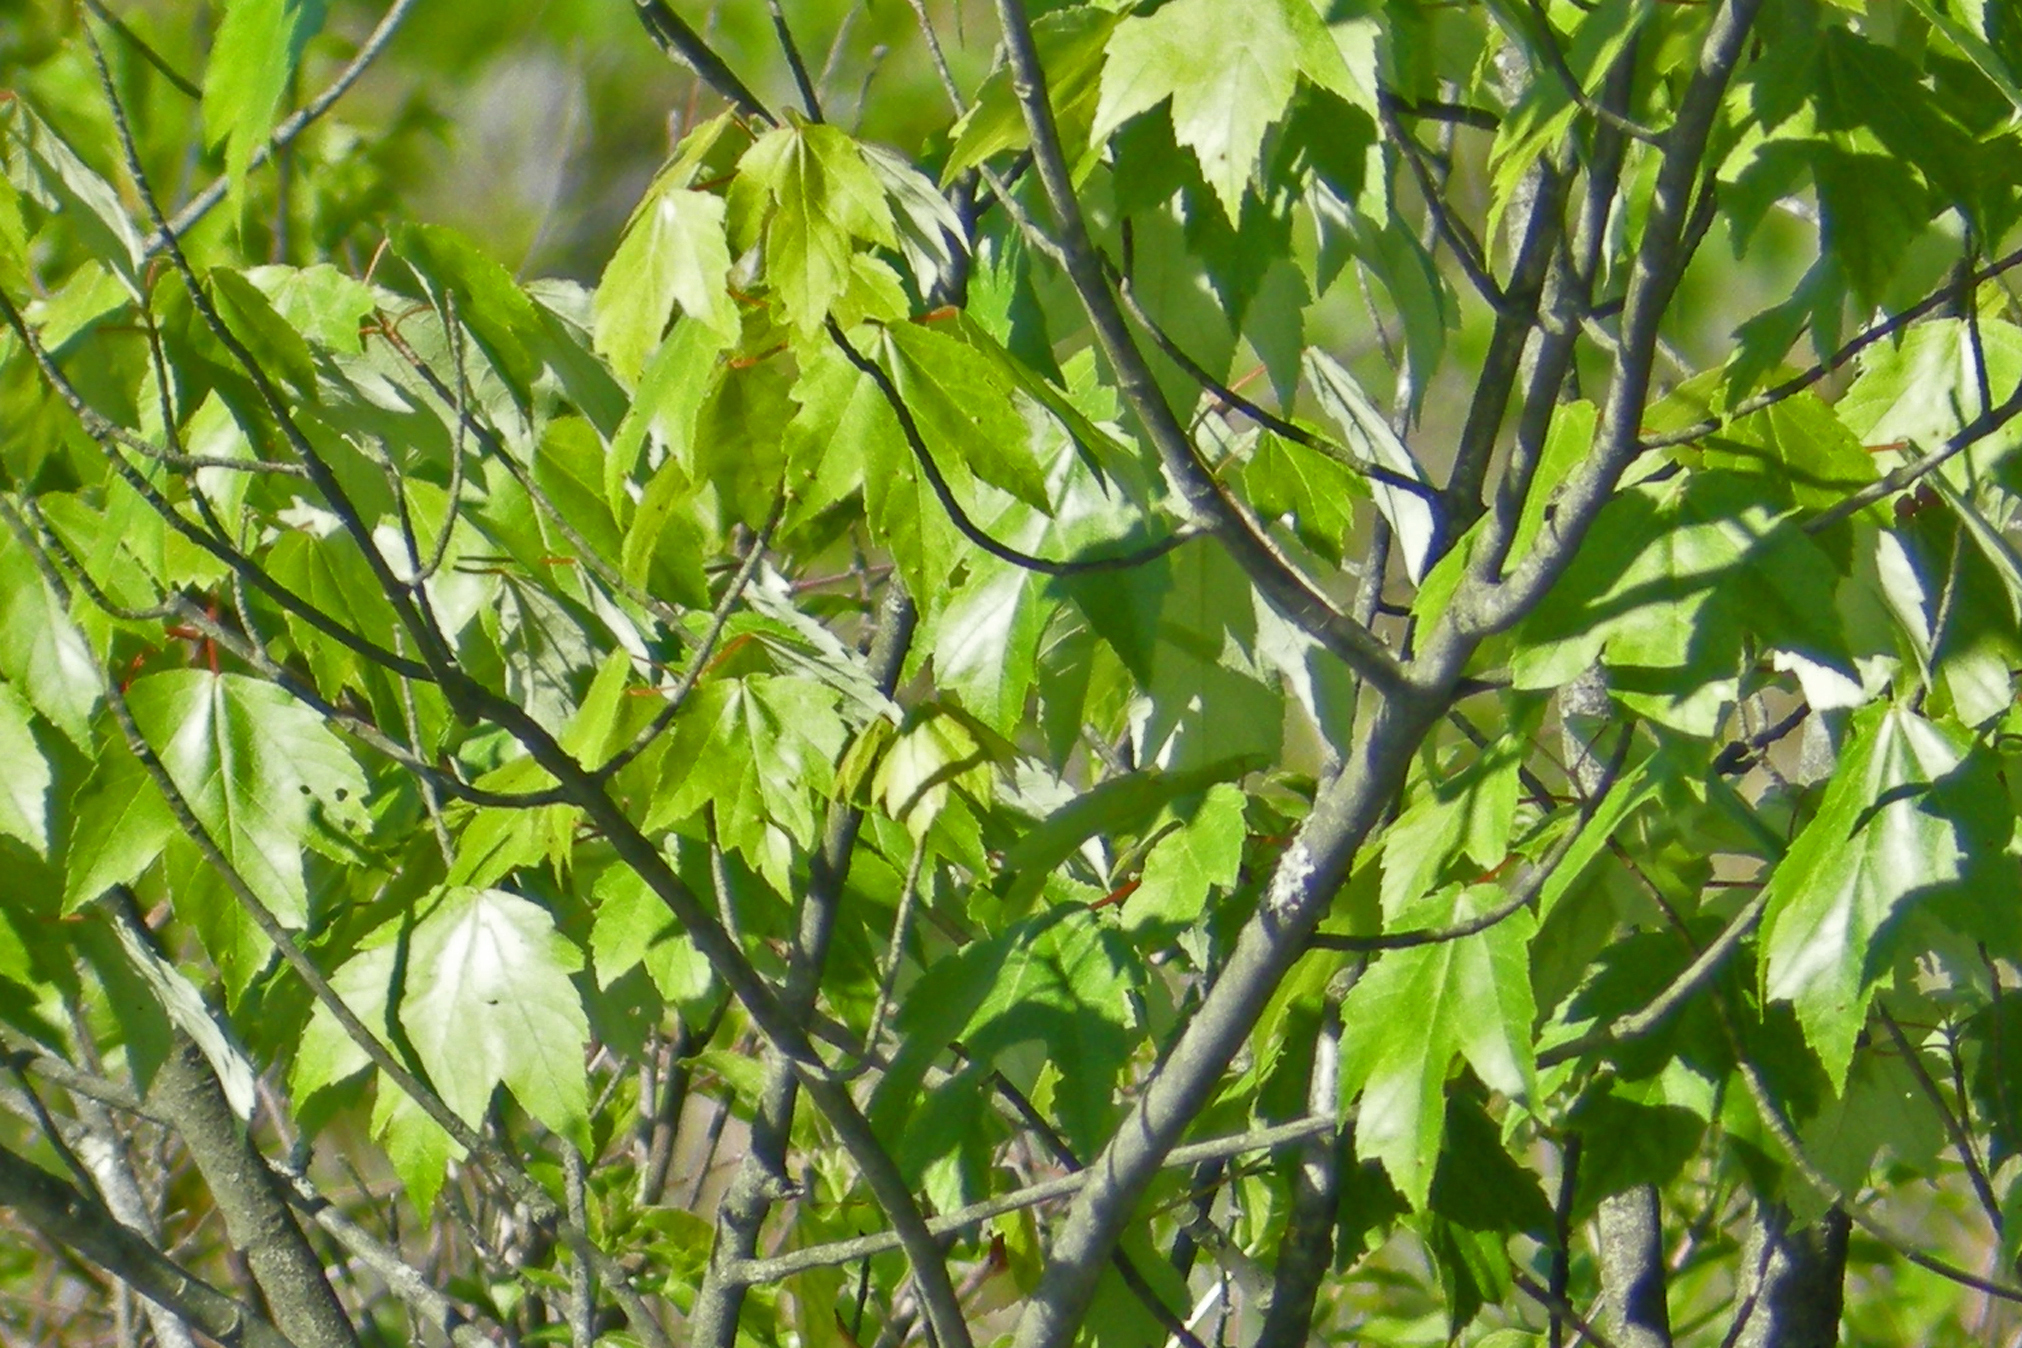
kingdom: Plantae
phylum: Tracheophyta
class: Magnoliopsida
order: Sapindales
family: Sapindaceae
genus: Acer
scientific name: Acer rubrum
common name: Red maple
